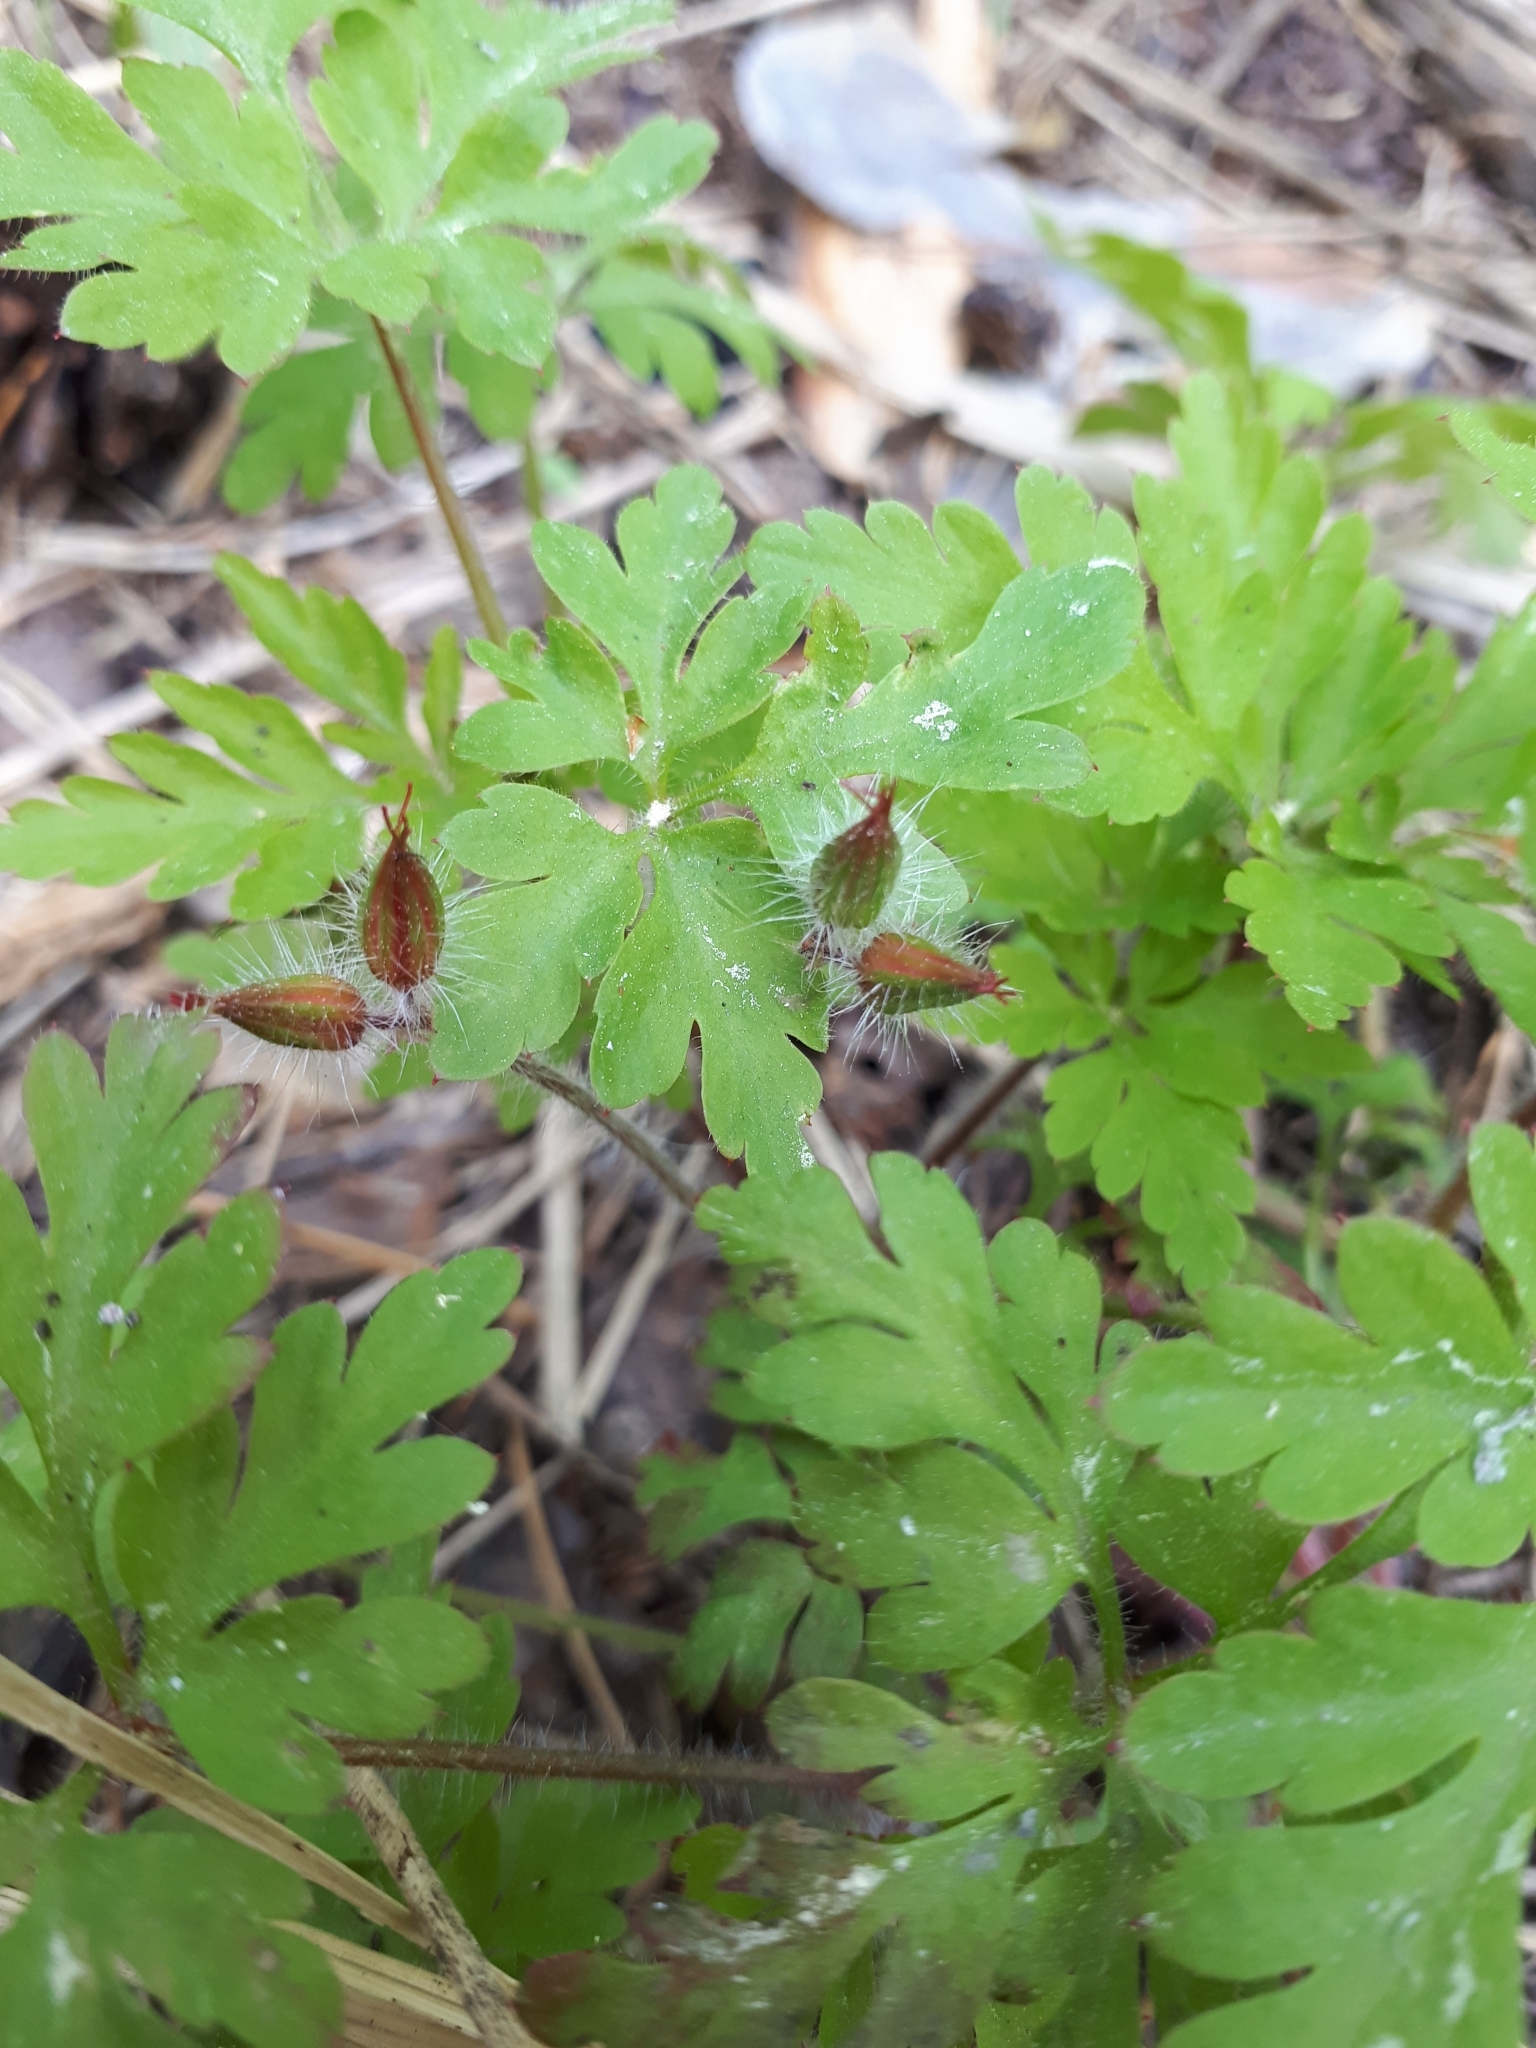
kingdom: Plantae
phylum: Tracheophyta
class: Magnoliopsida
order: Geraniales
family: Geraniaceae
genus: Geranium
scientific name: Geranium robertianum
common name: Herb-robert
